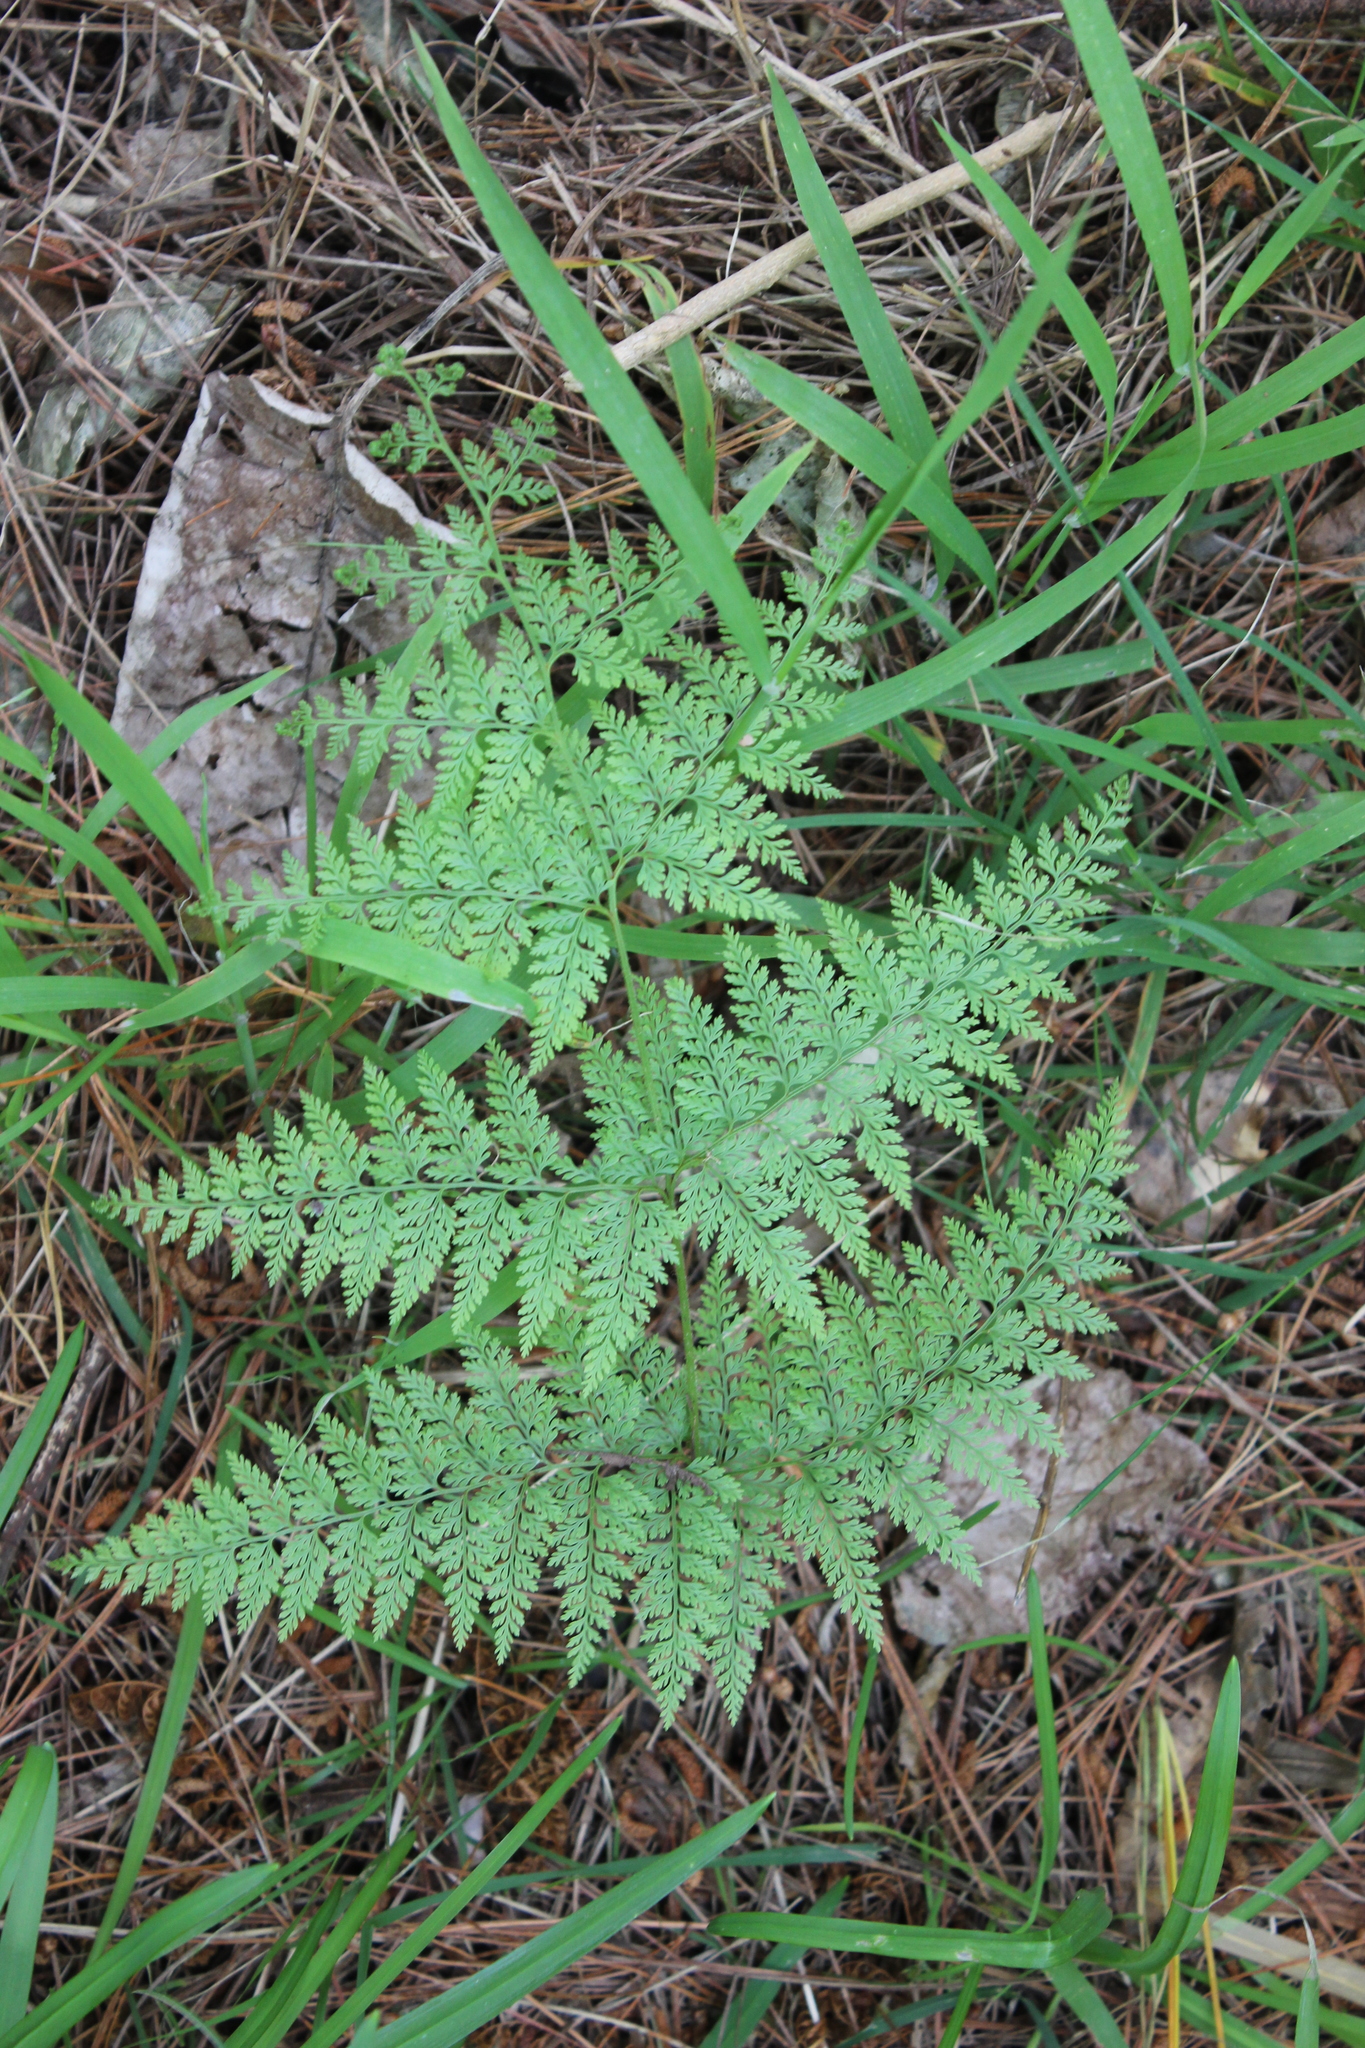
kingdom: Plantae
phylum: Tracheophyta
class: Polypodiopsida
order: Polypodiales
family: Dennstaedtiaceae
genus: Paesia
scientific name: Paesia scaberula
